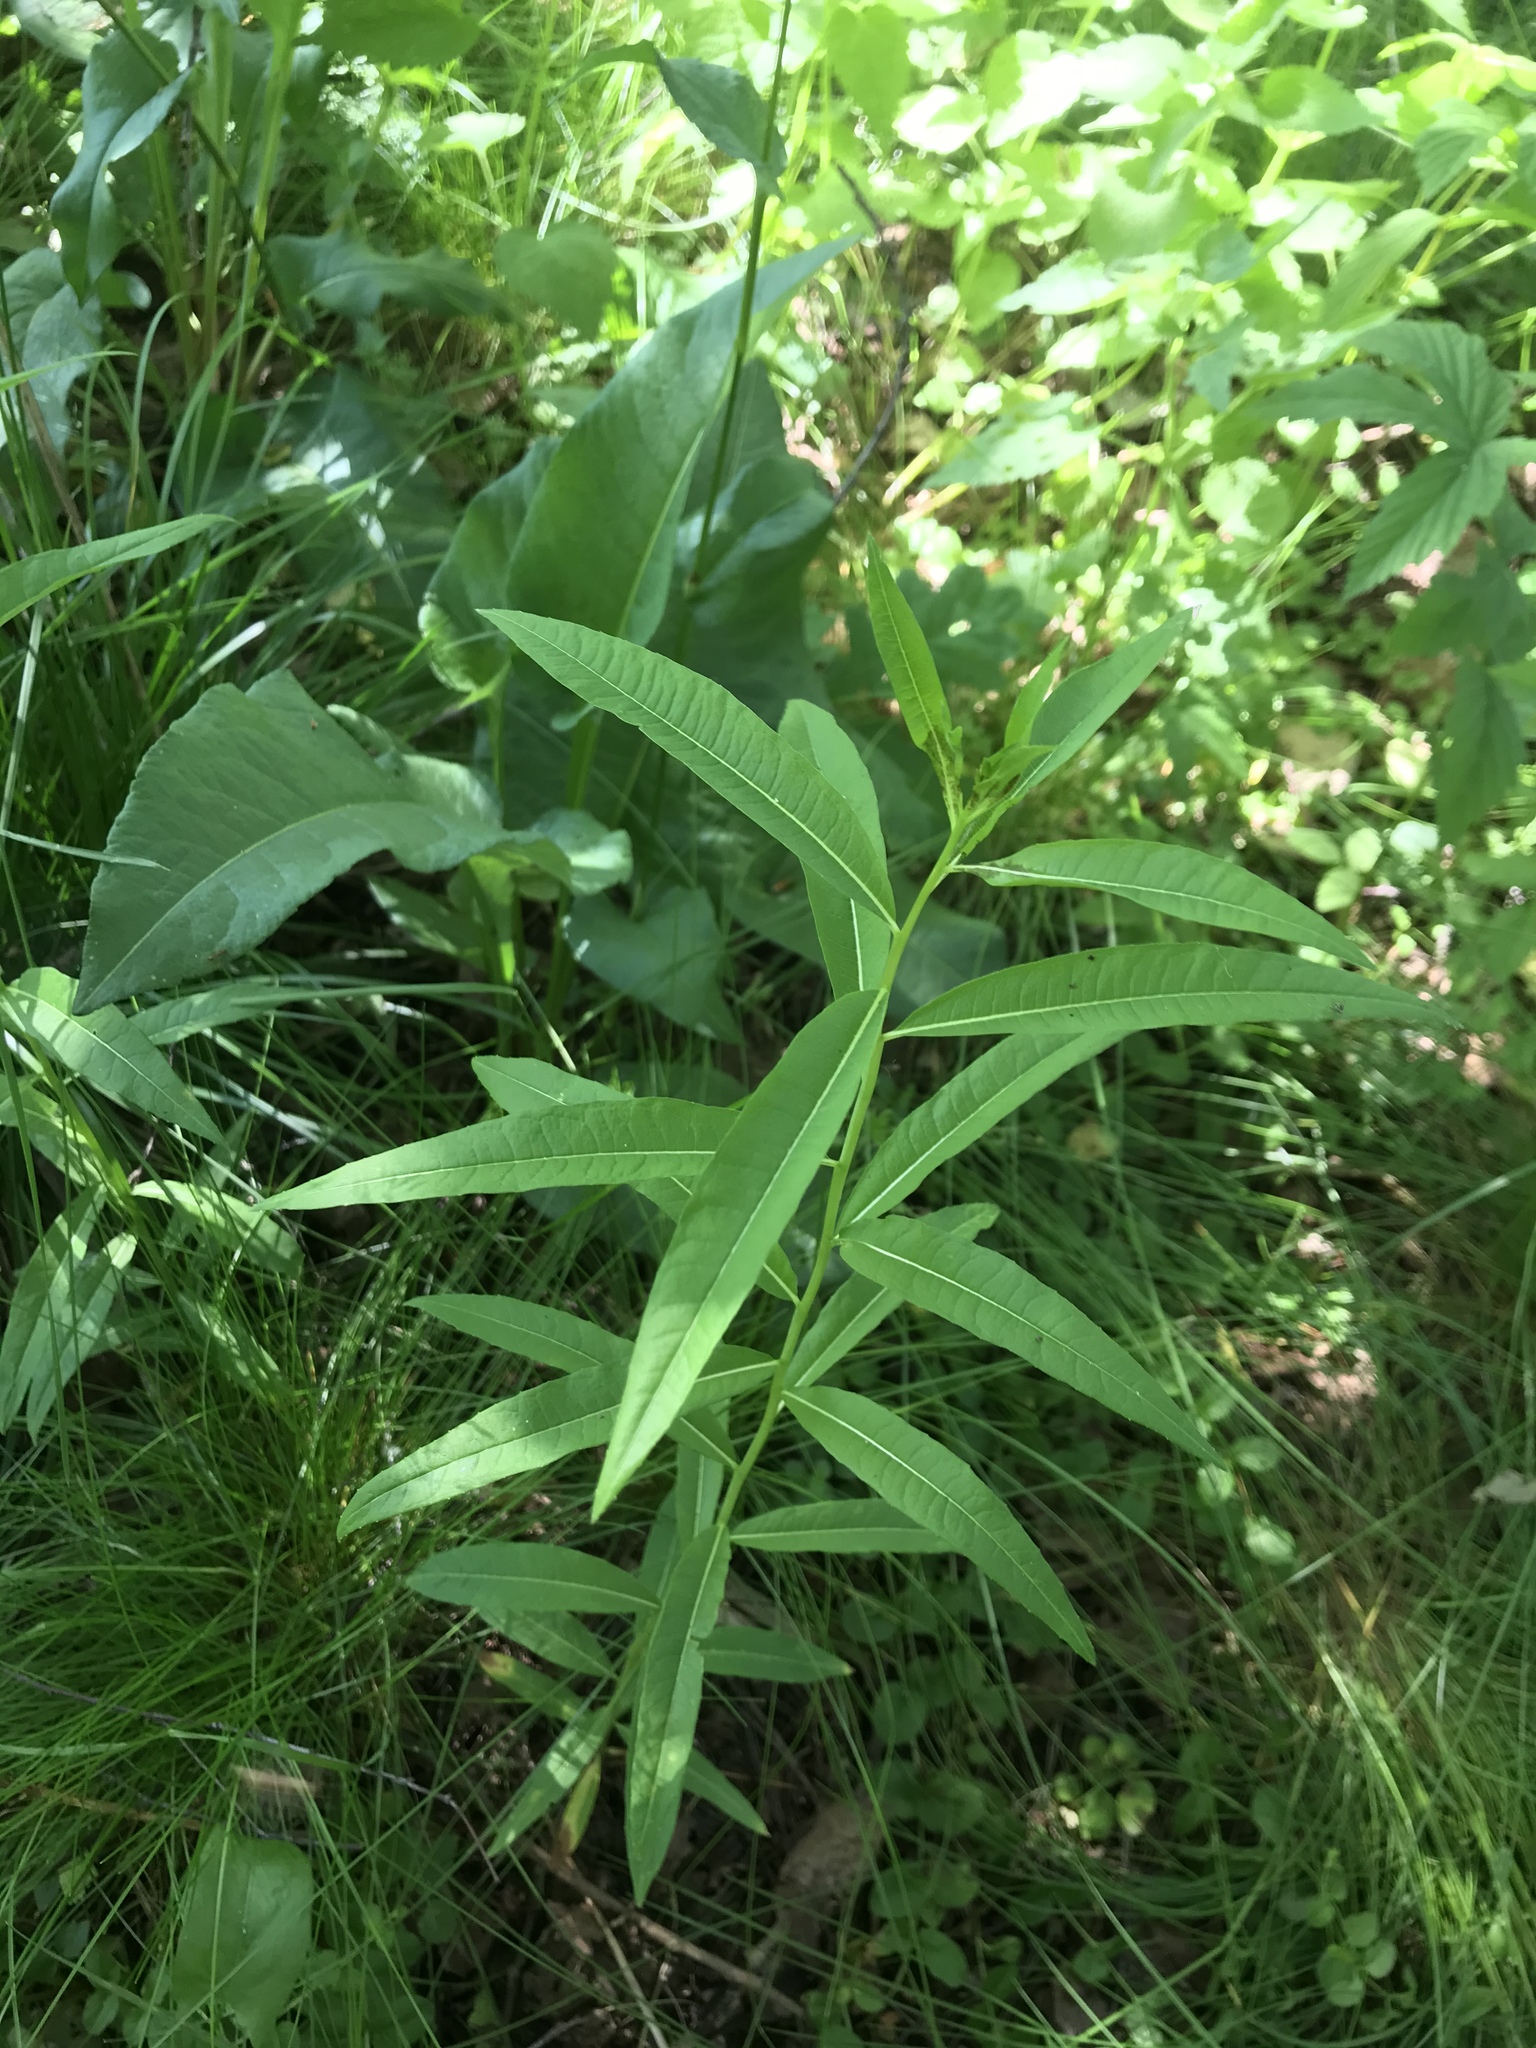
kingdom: Plantae
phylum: Tracheophyta
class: Magnoliopsida
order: Myrtales
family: Onagraceae
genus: Chamaenerion
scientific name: Chamaenerion angustifolium
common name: Fireweed
